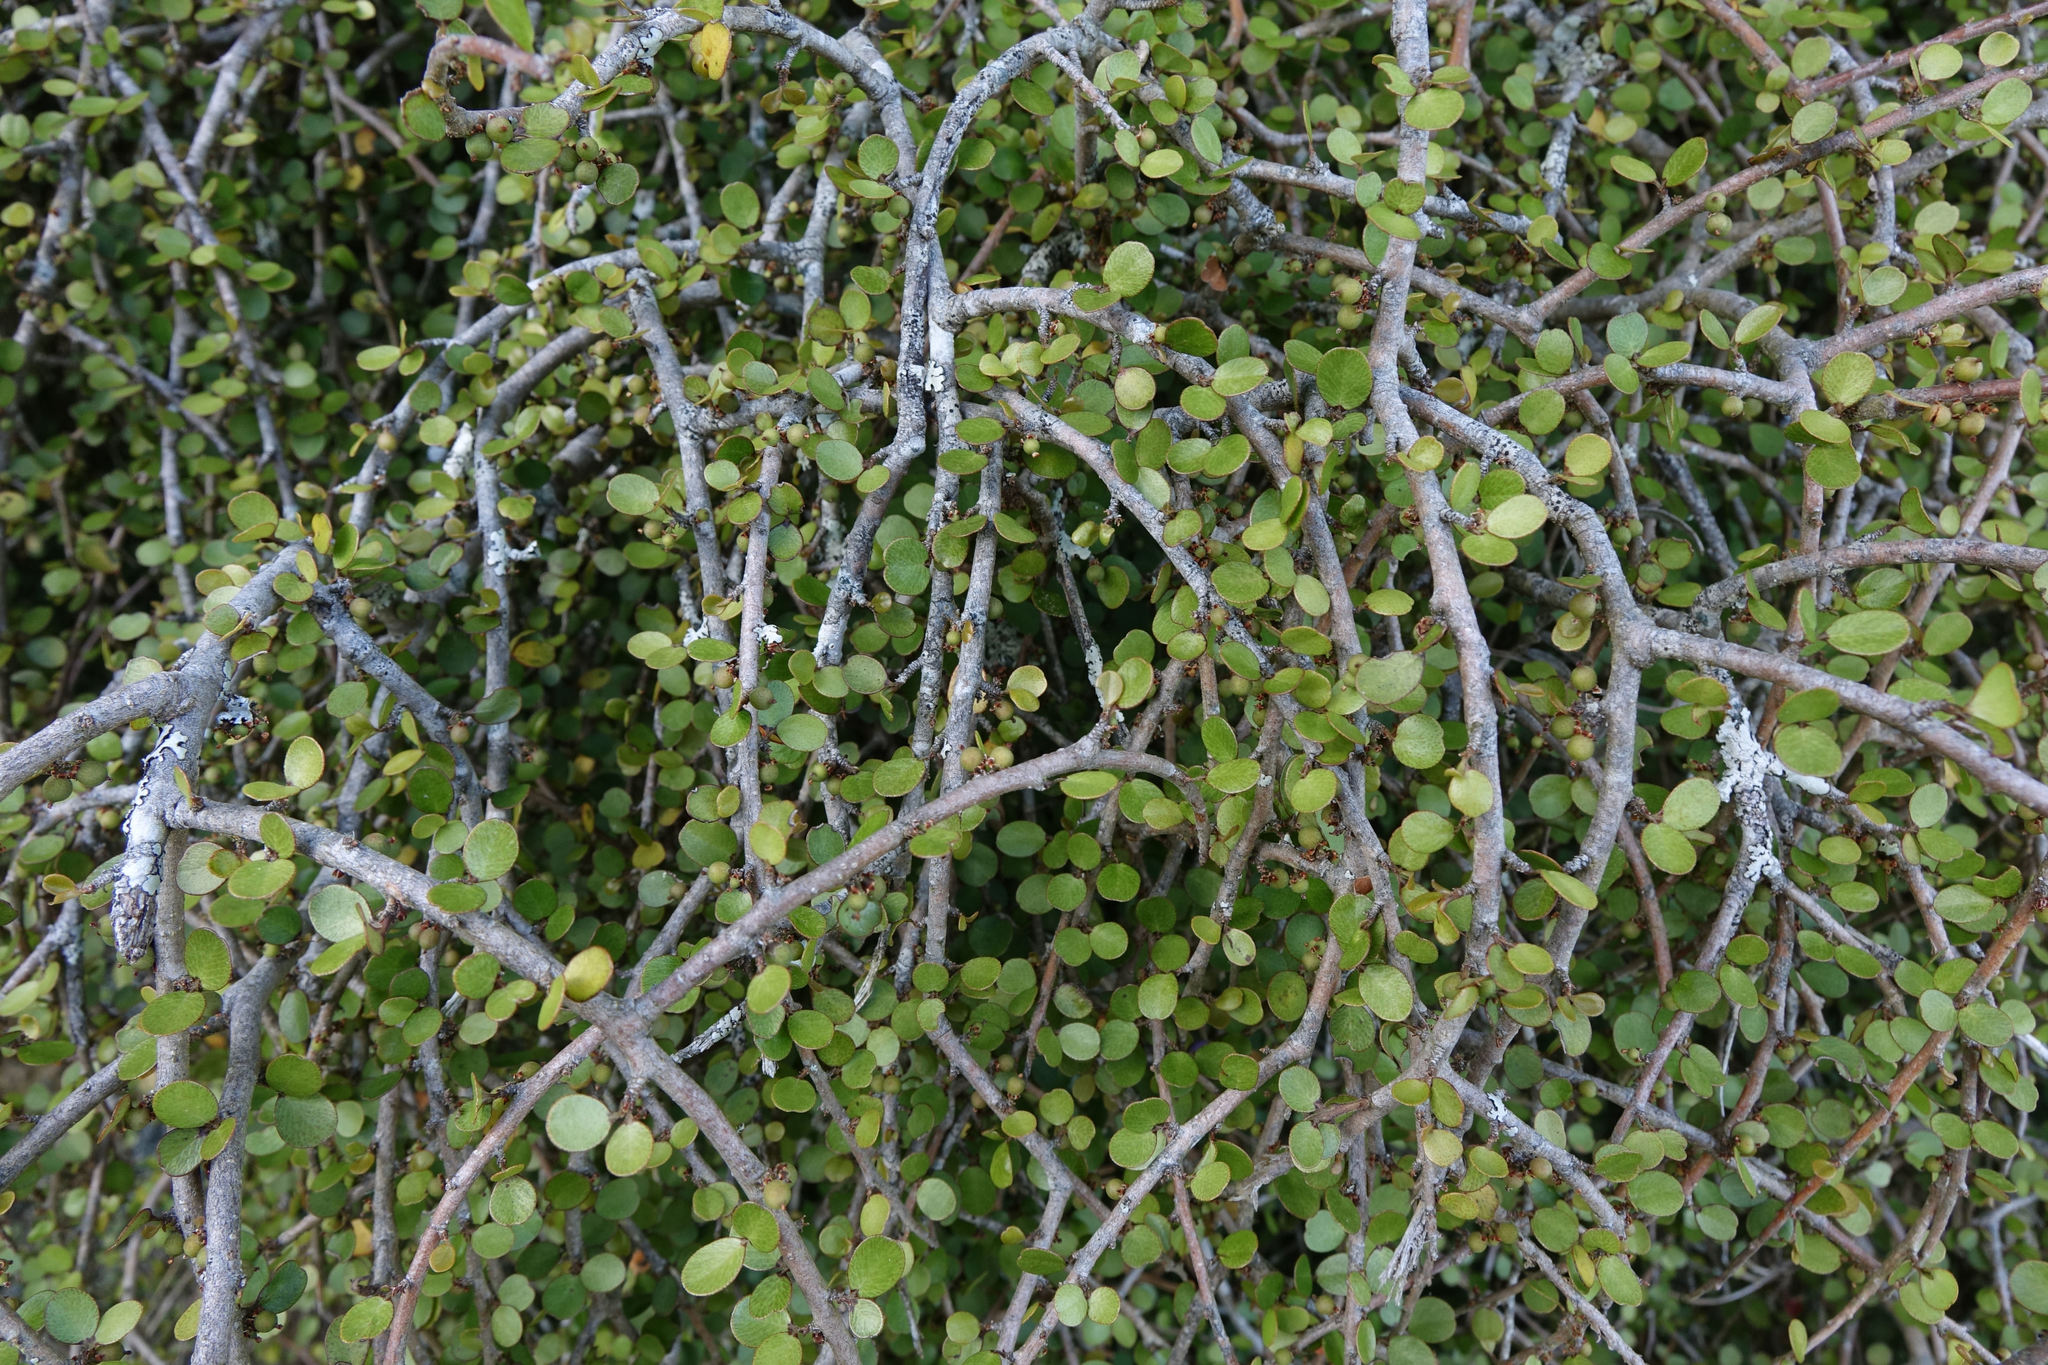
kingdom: Plantae
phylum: Tracheophyta
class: Magnoliopsida
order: Ericales
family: Primulaceae
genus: Myrsine
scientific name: Myrsine divaricata
